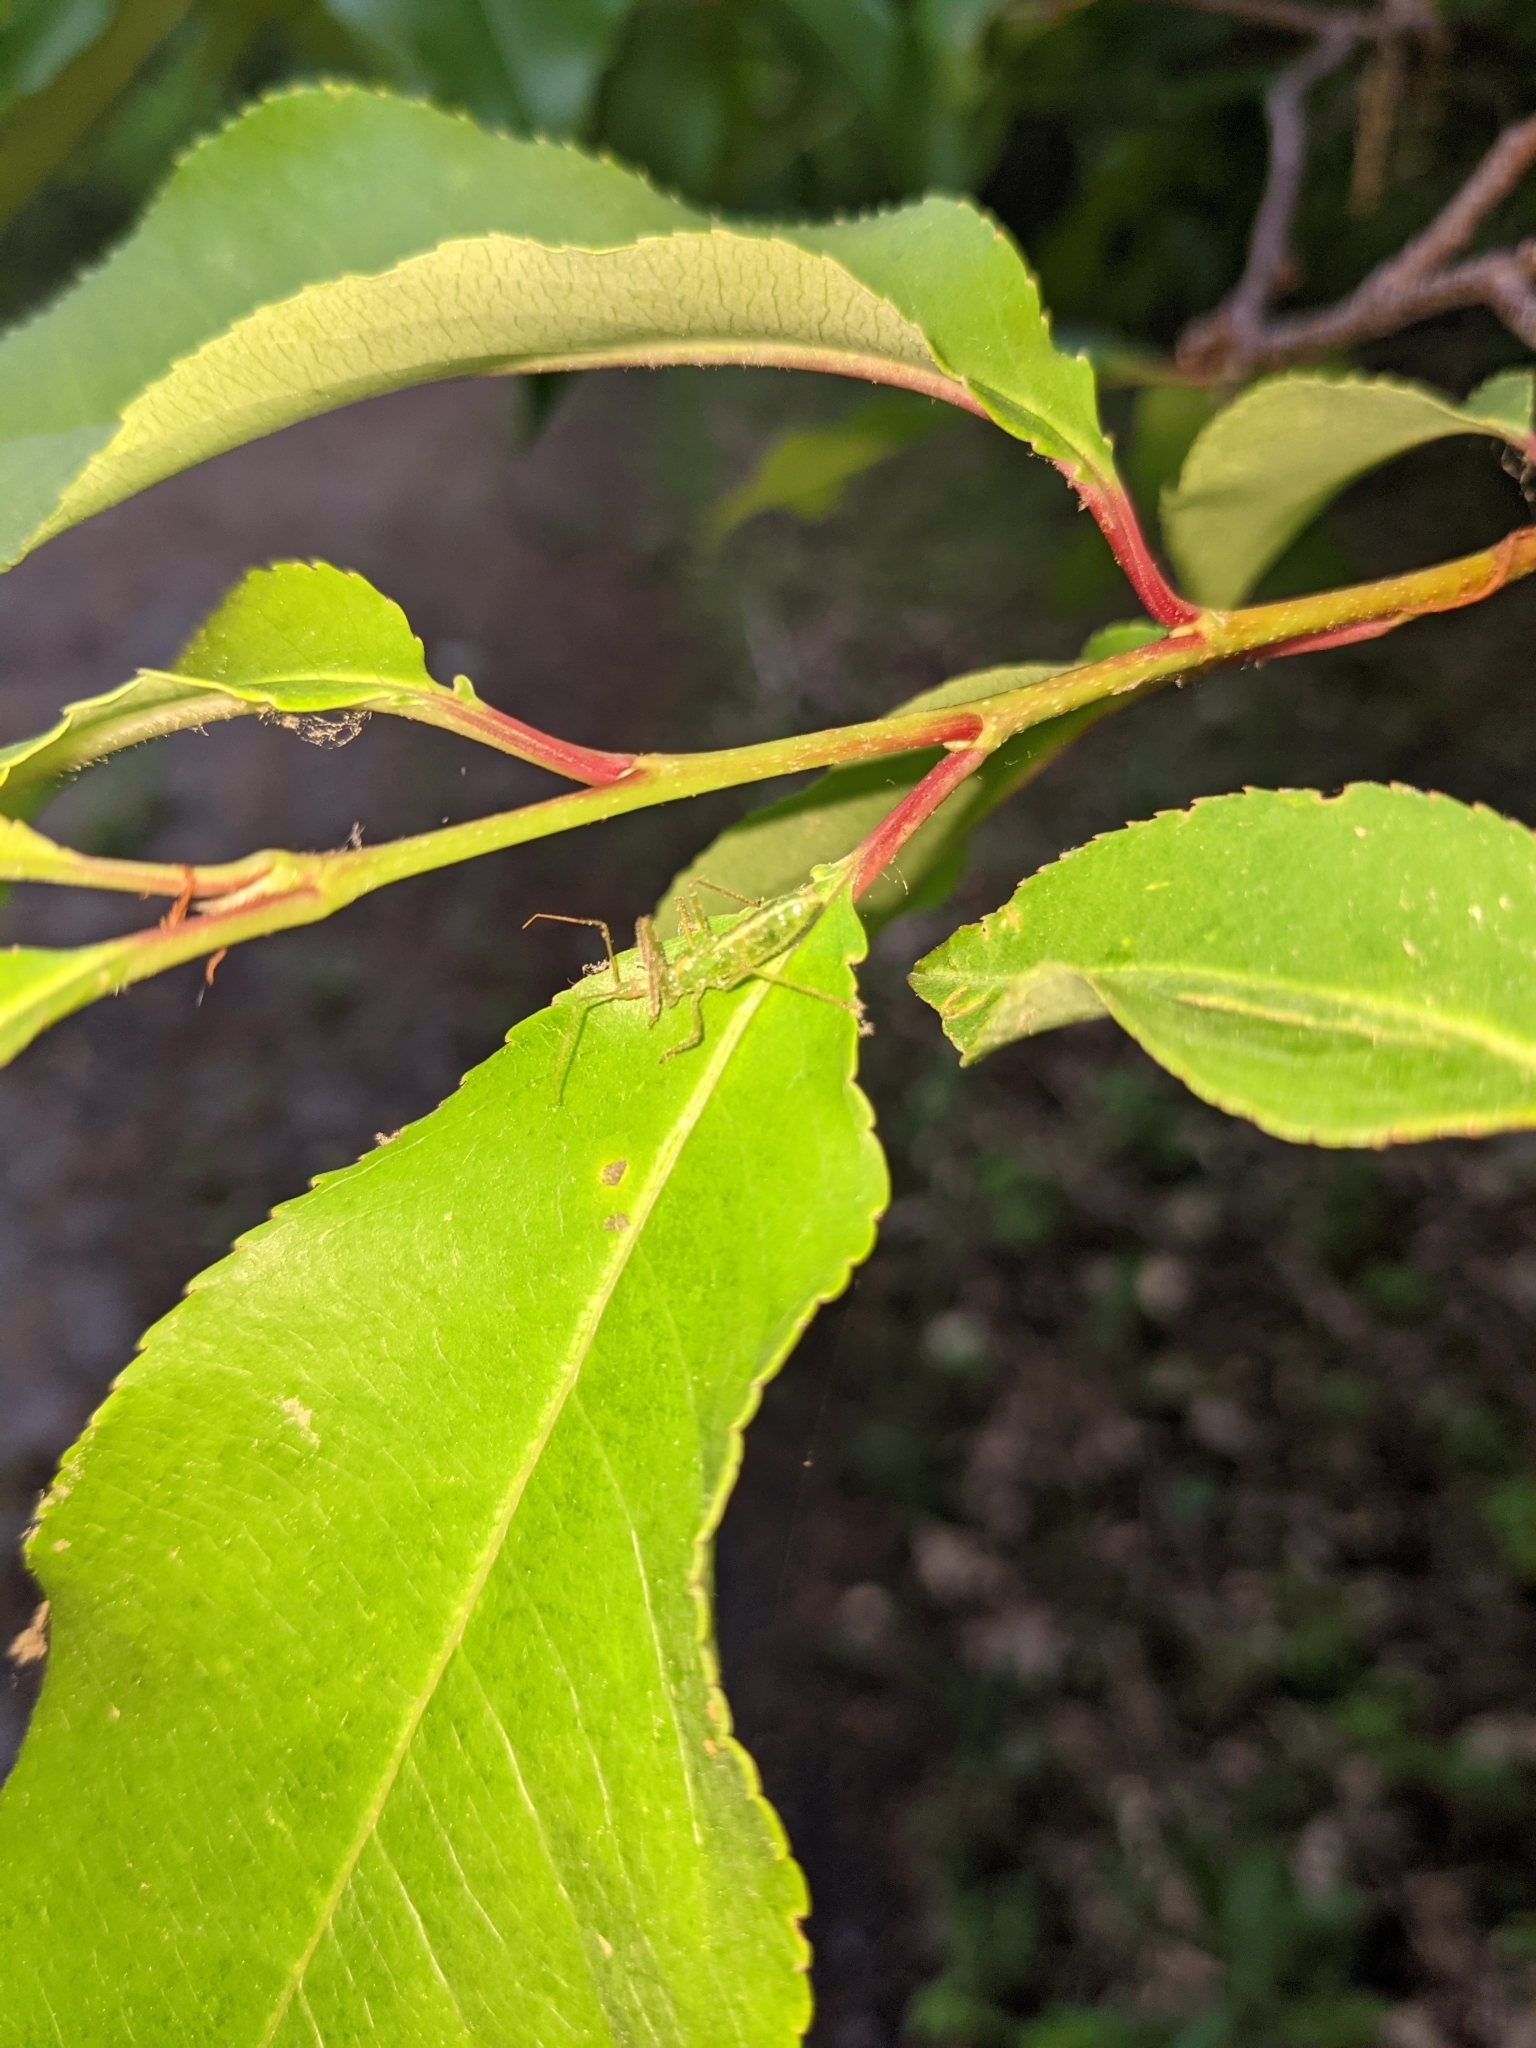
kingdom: Animalia
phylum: Arthropoda
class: Insecta
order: Hemiptera
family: Reduviidae
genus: Zelus
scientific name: Zelus luridus
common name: Pale green assassin bug
